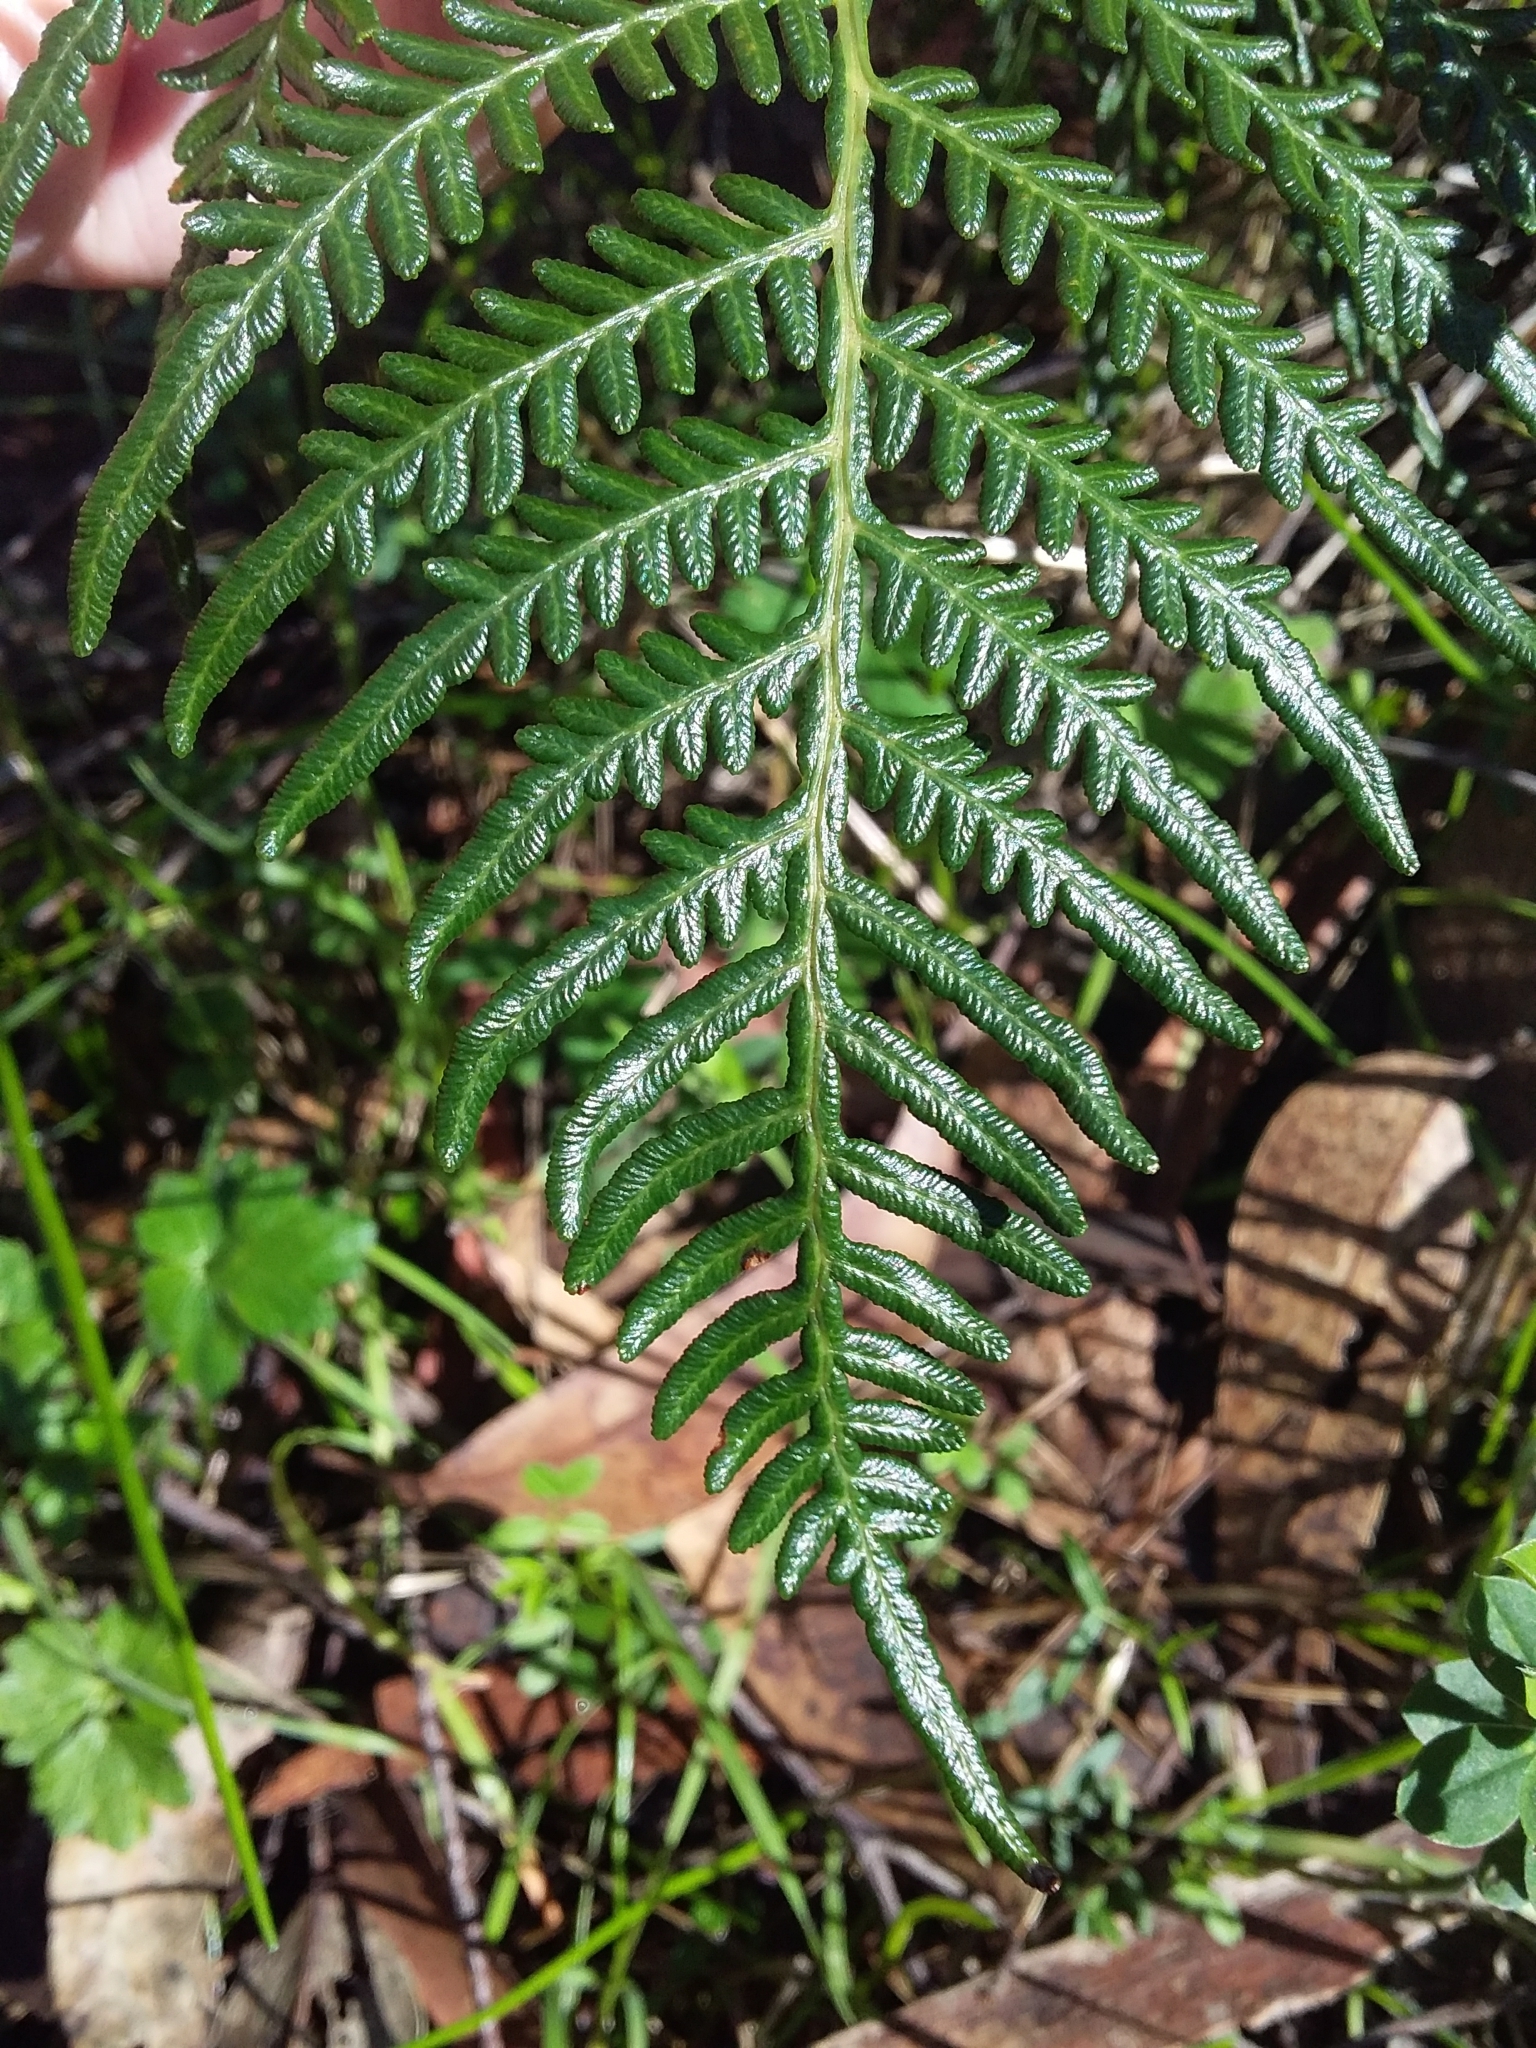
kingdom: Plantae
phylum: Tracheophyta
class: Polypodiopsida
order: Polypodiales
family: Dennstaedtiaceae
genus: Pteridium
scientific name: Pteridium esculentum
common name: Bracken fern
